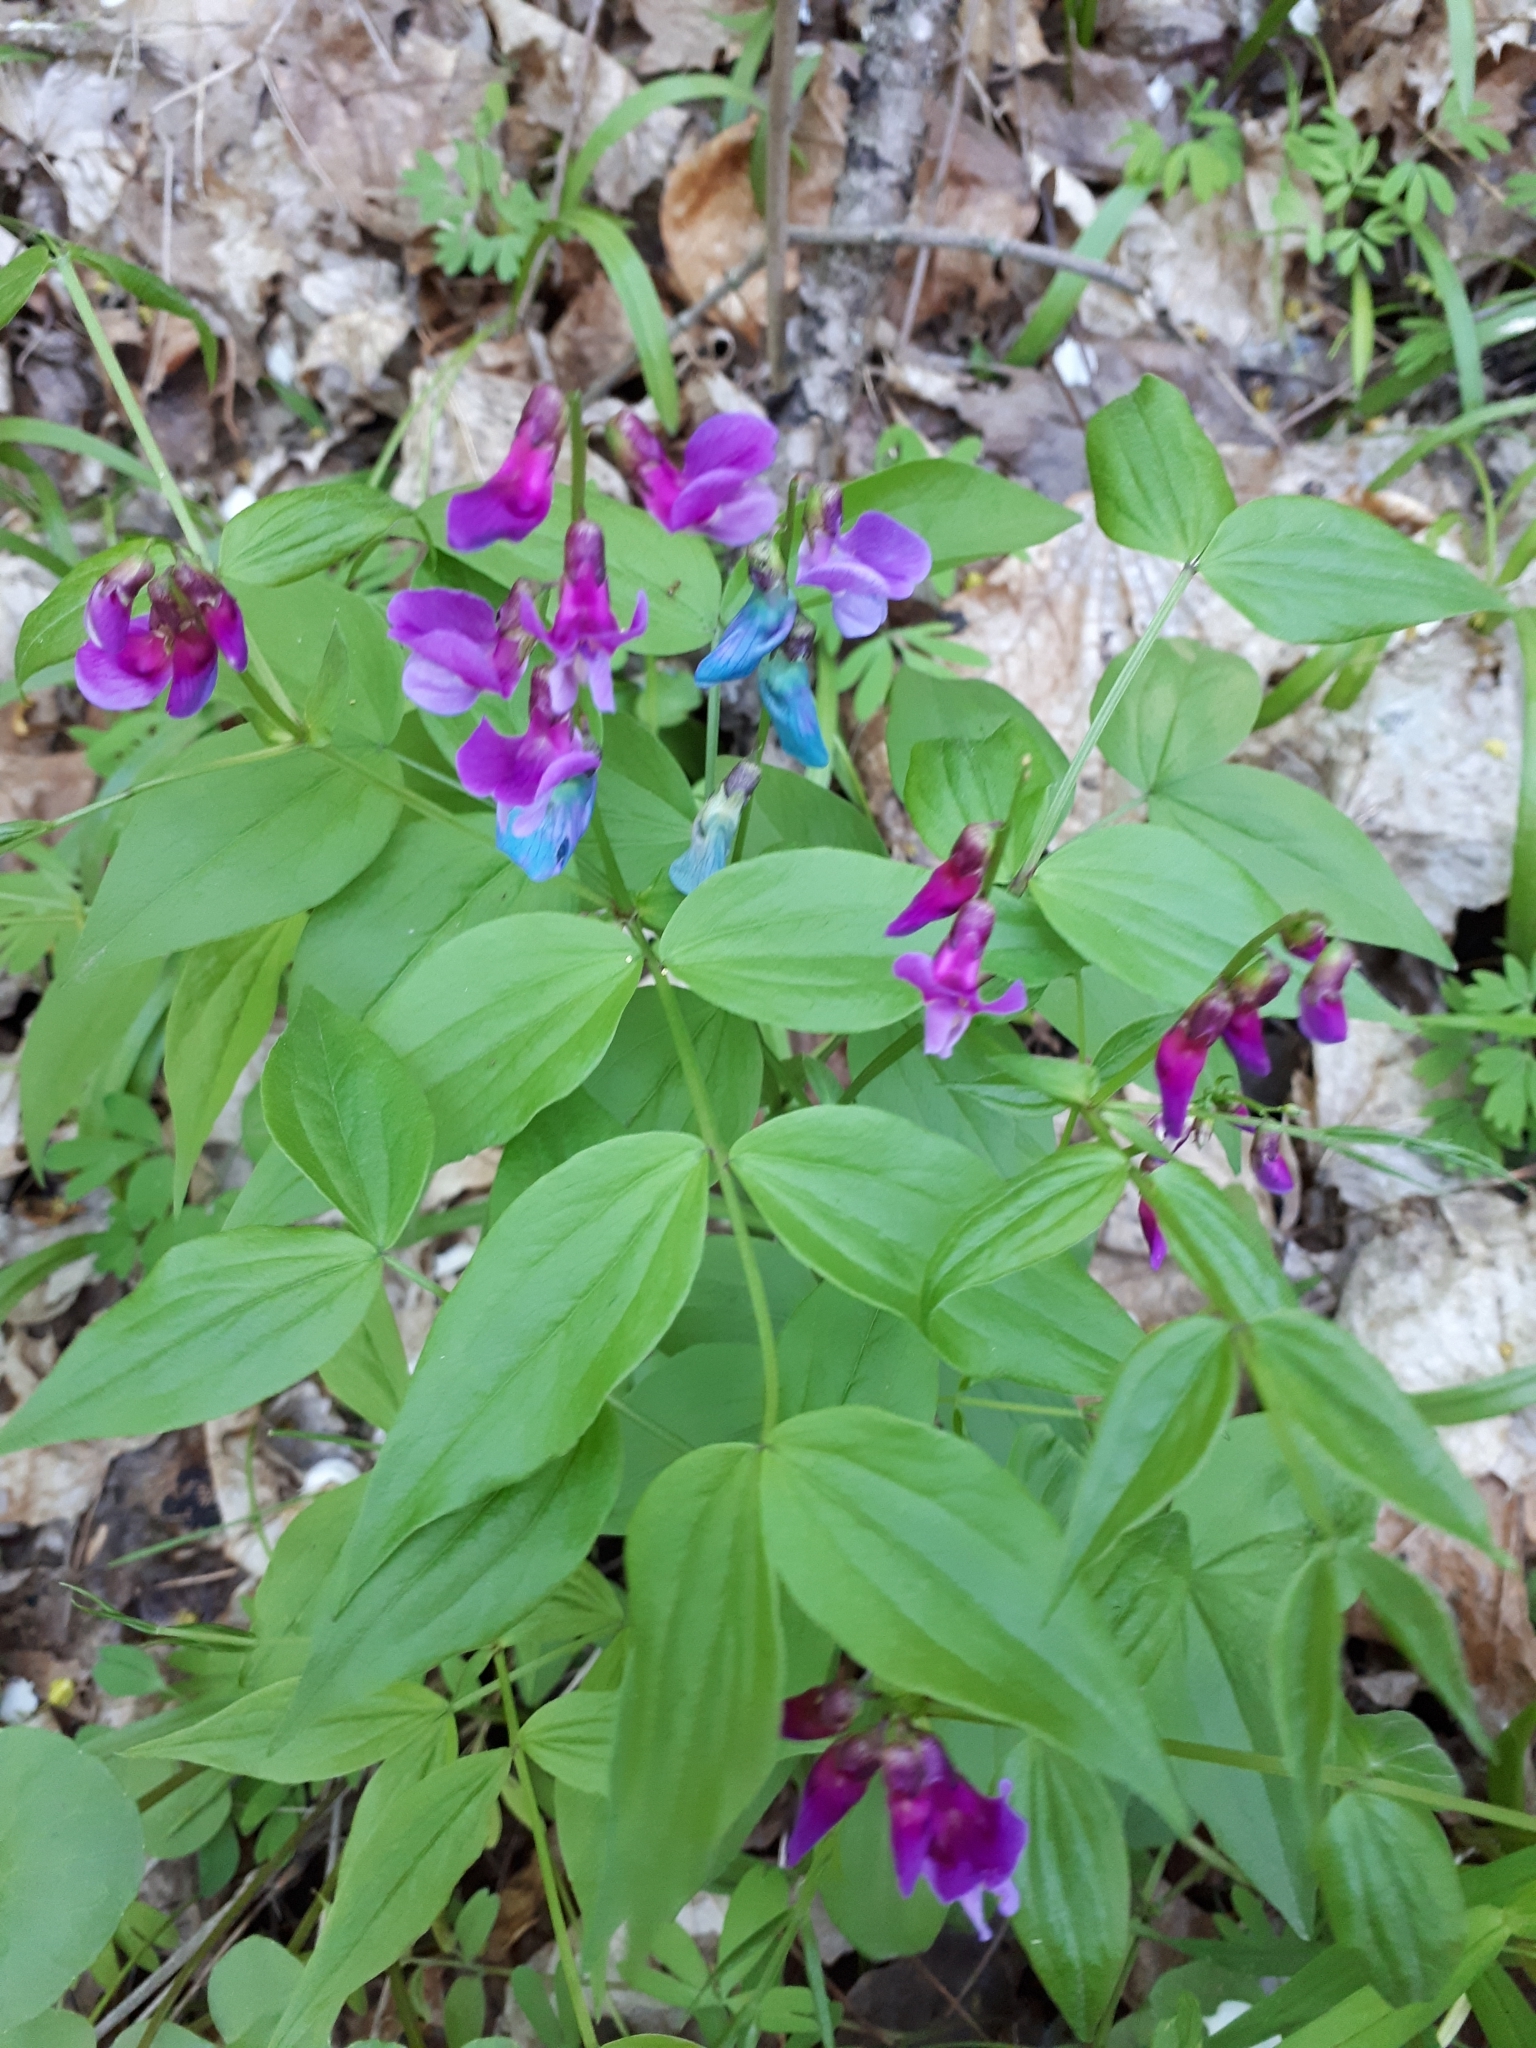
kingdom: Plantae
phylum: Tracheophyta
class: Magnoliopsida
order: Fabales
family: Fabaceae
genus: Lathyrus
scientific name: Lathyrus vernus
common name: Spring pea
